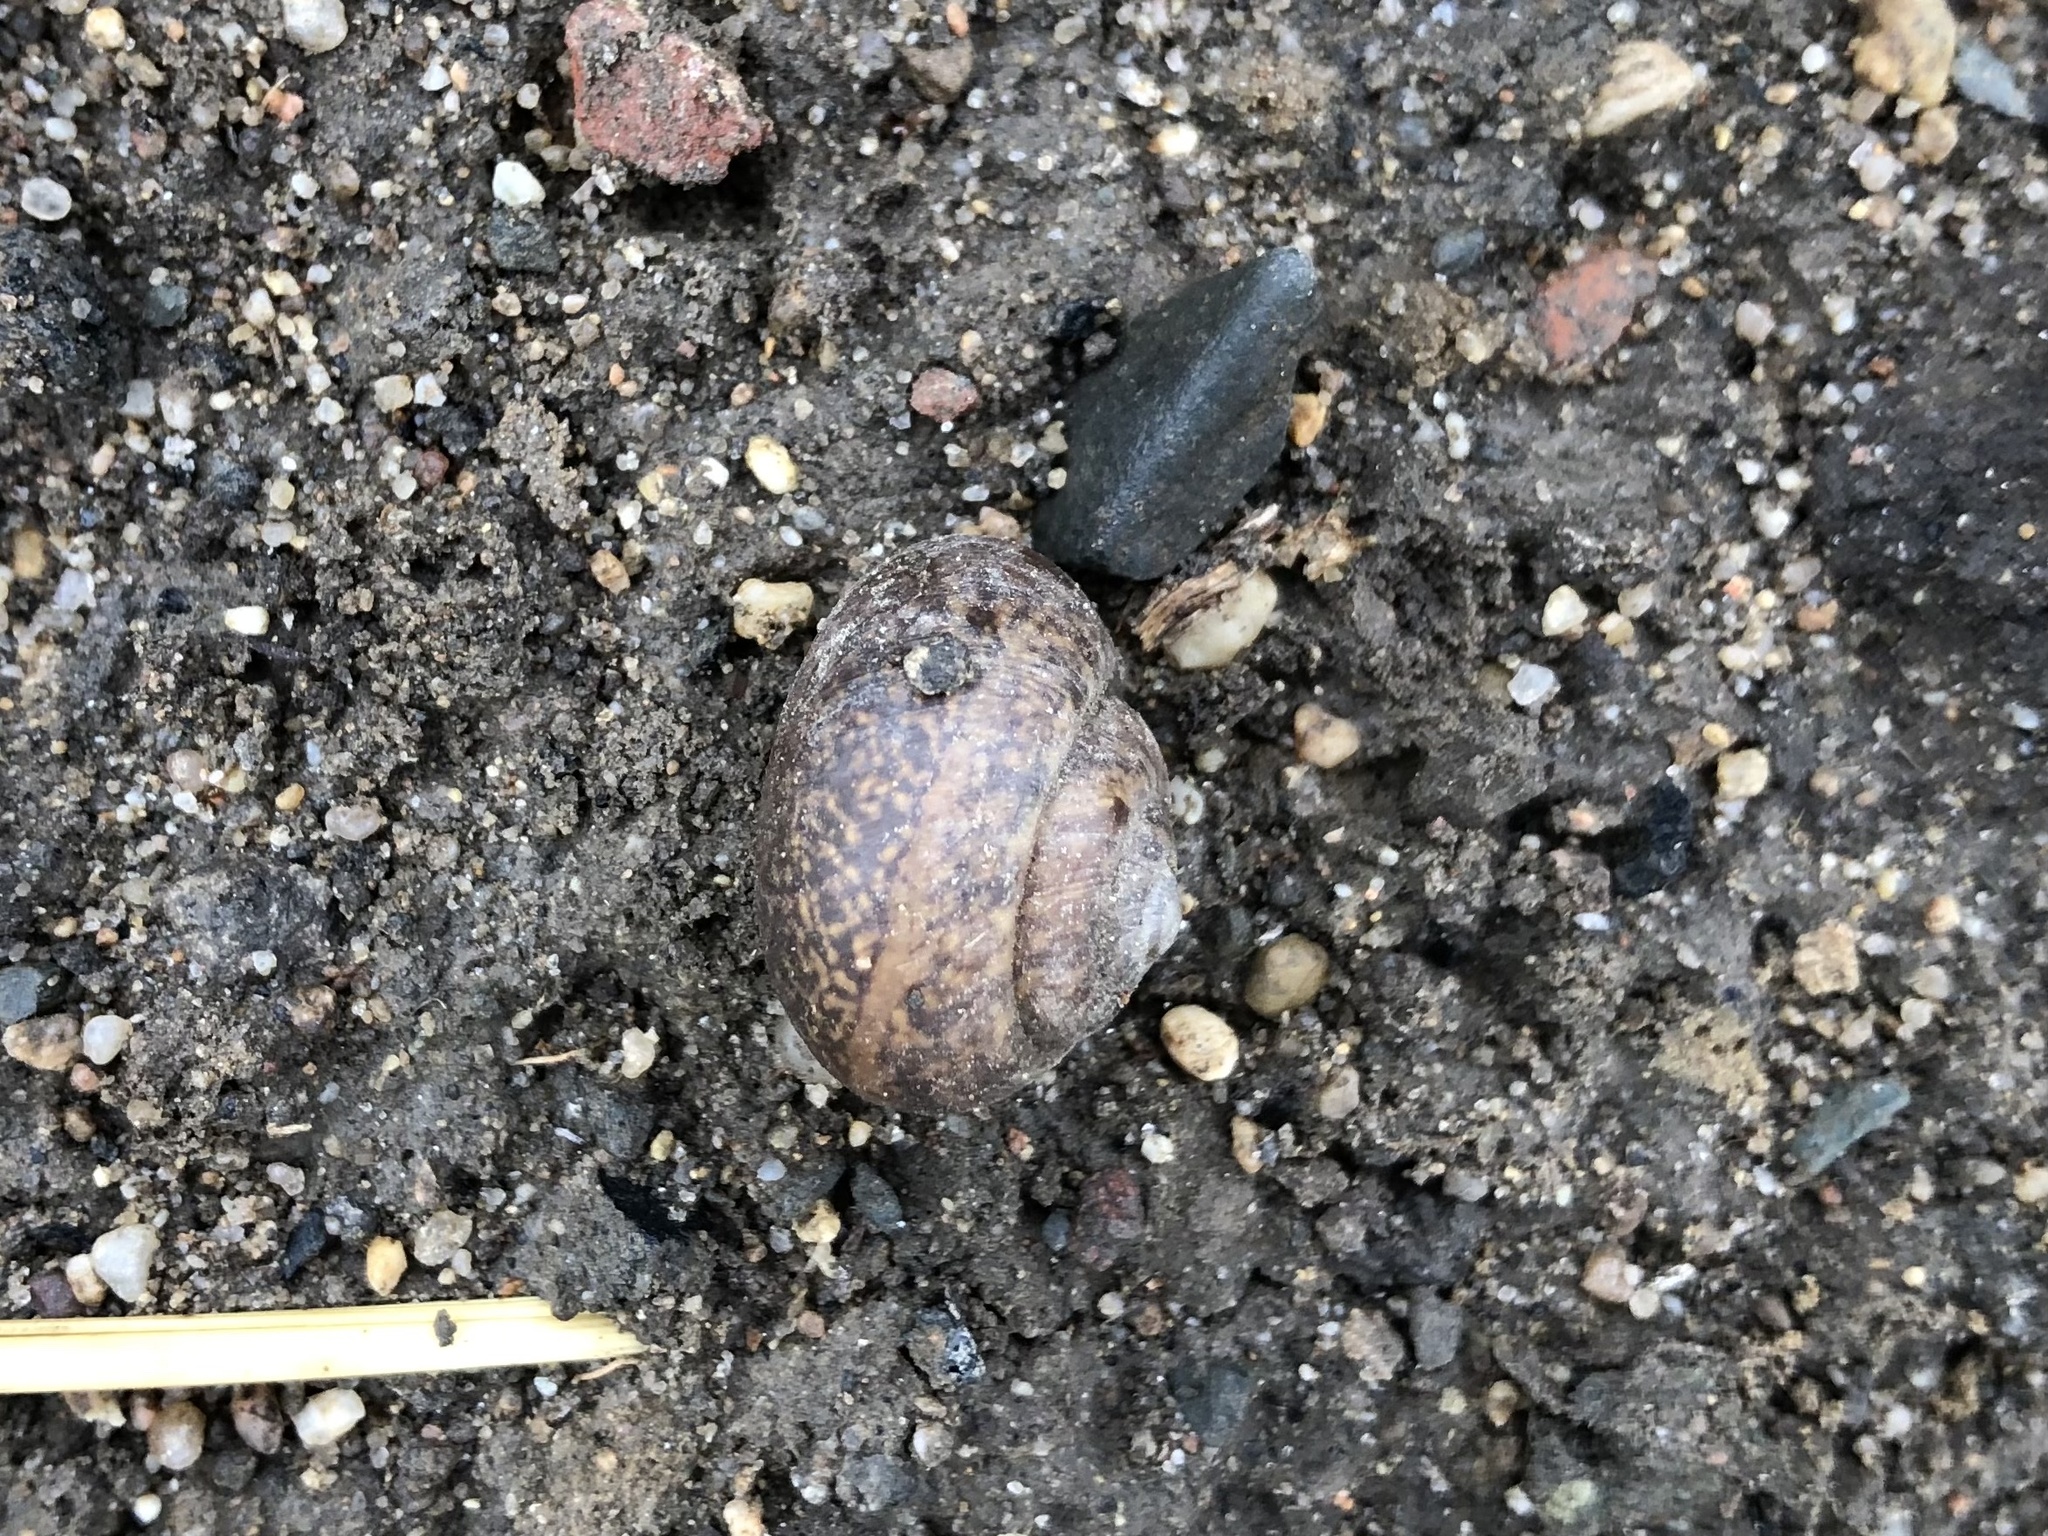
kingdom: Animalia
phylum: Mollusca
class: Gastropoda
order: Stylommatophora
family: Camaenidae
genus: Fruticicola
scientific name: Fruticicola fruticum
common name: Bush snail
